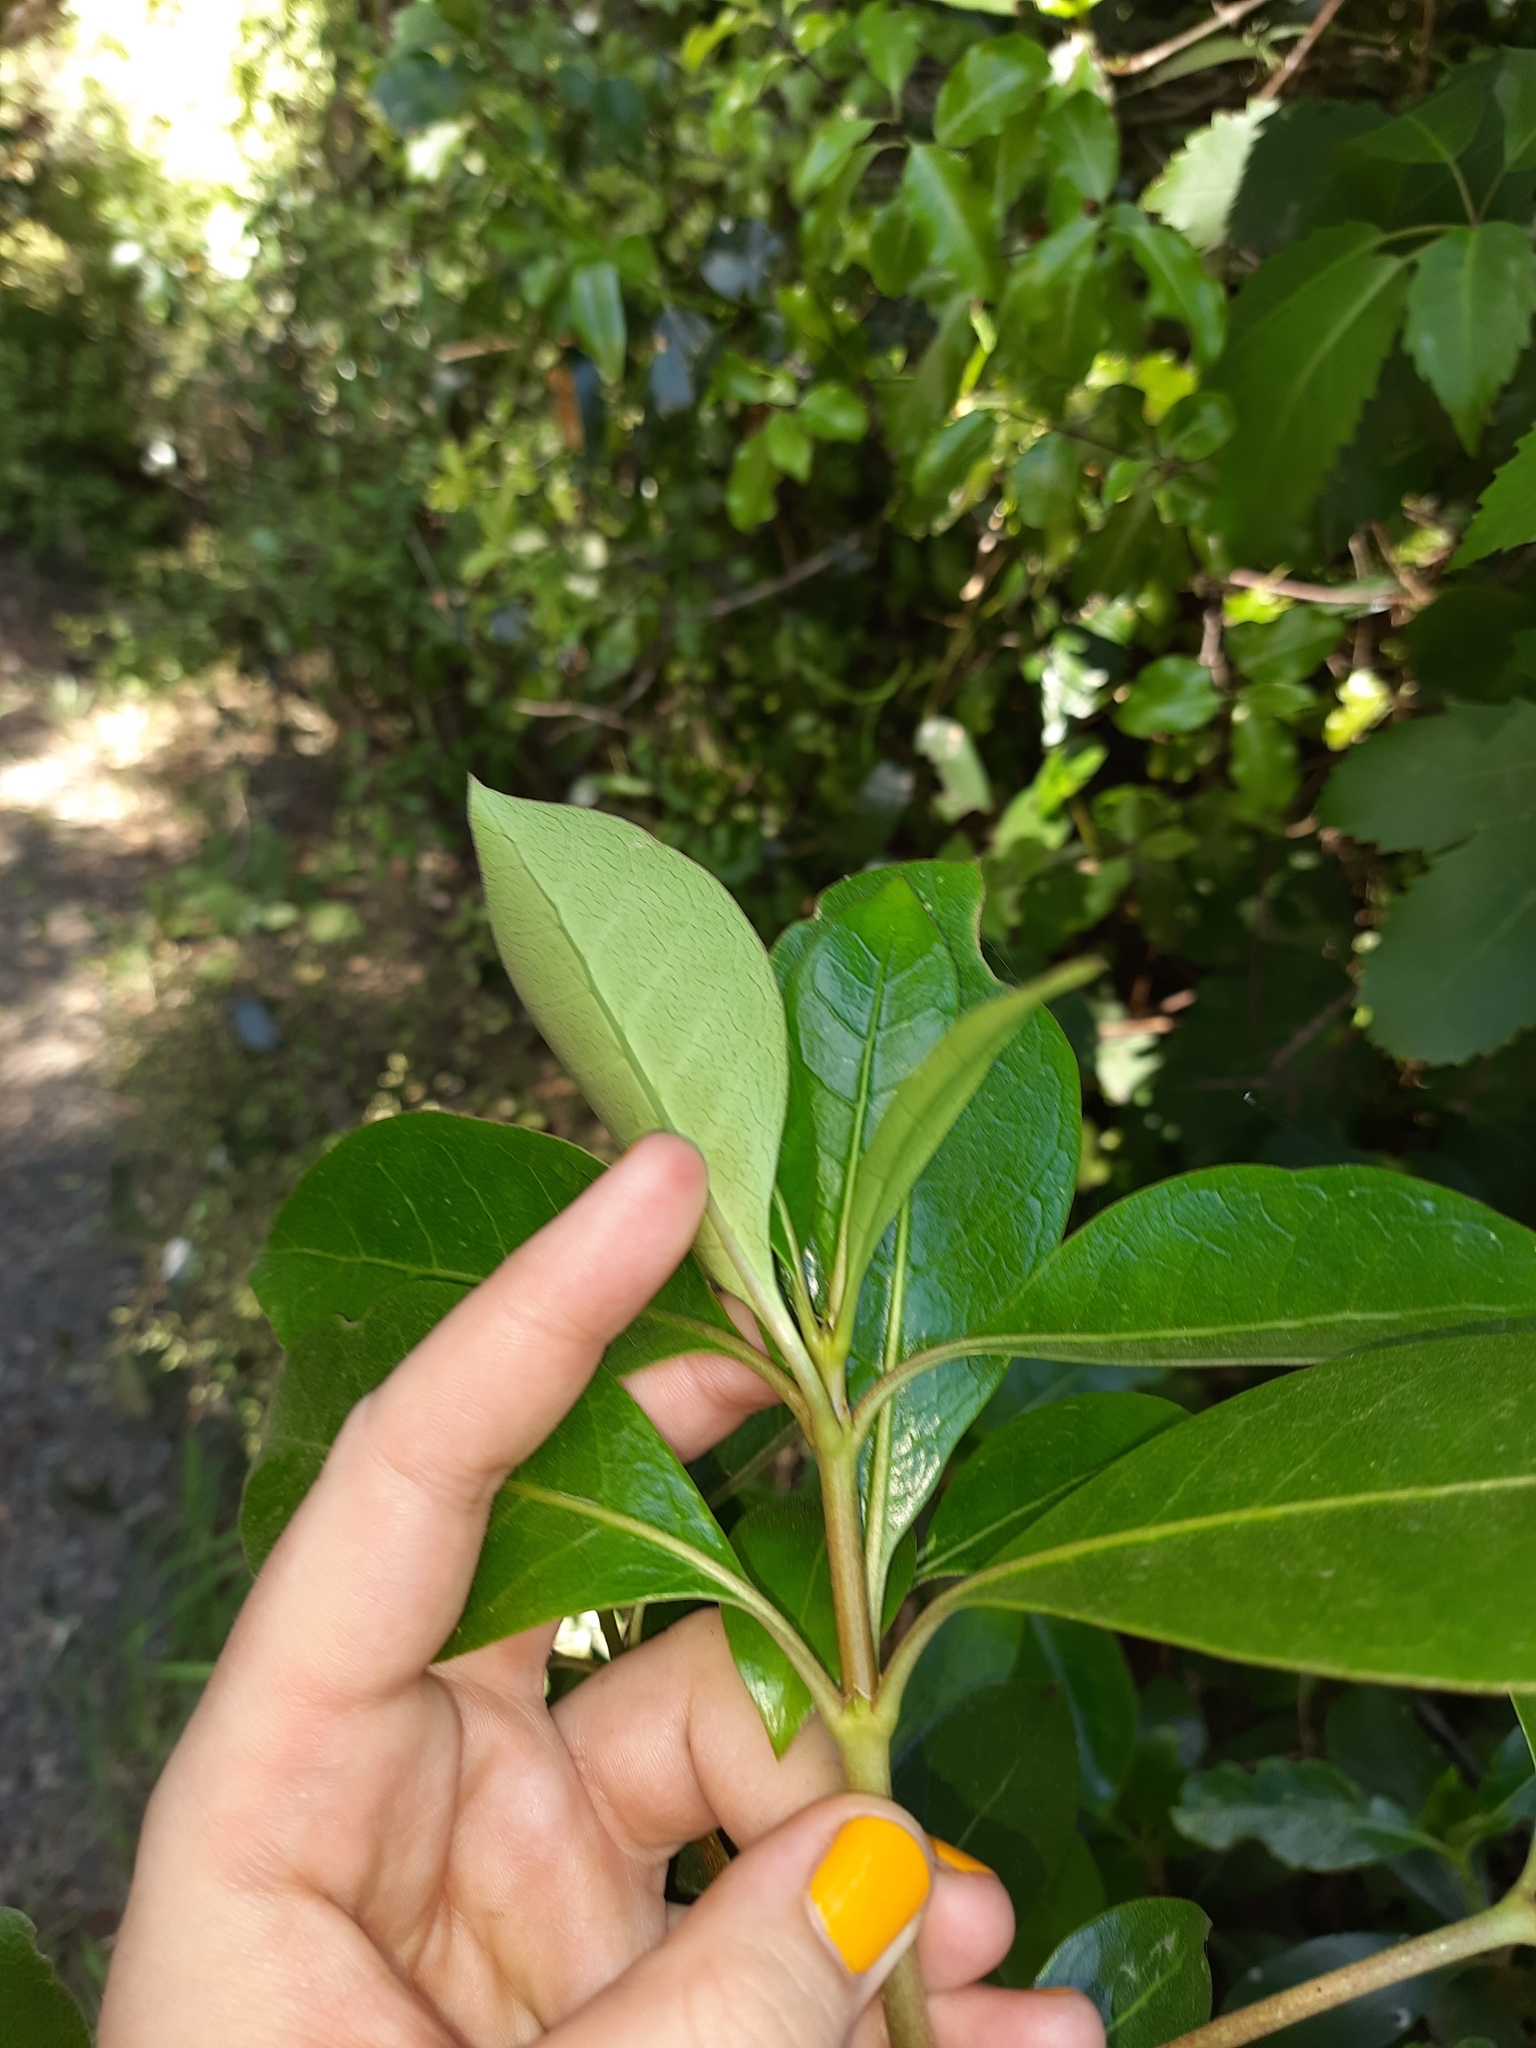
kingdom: Plantae
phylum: Tracheophyta
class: Magnoliopsida
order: Gentianales
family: Rubiaceae
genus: Coprosma
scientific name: Coprosma lucida
